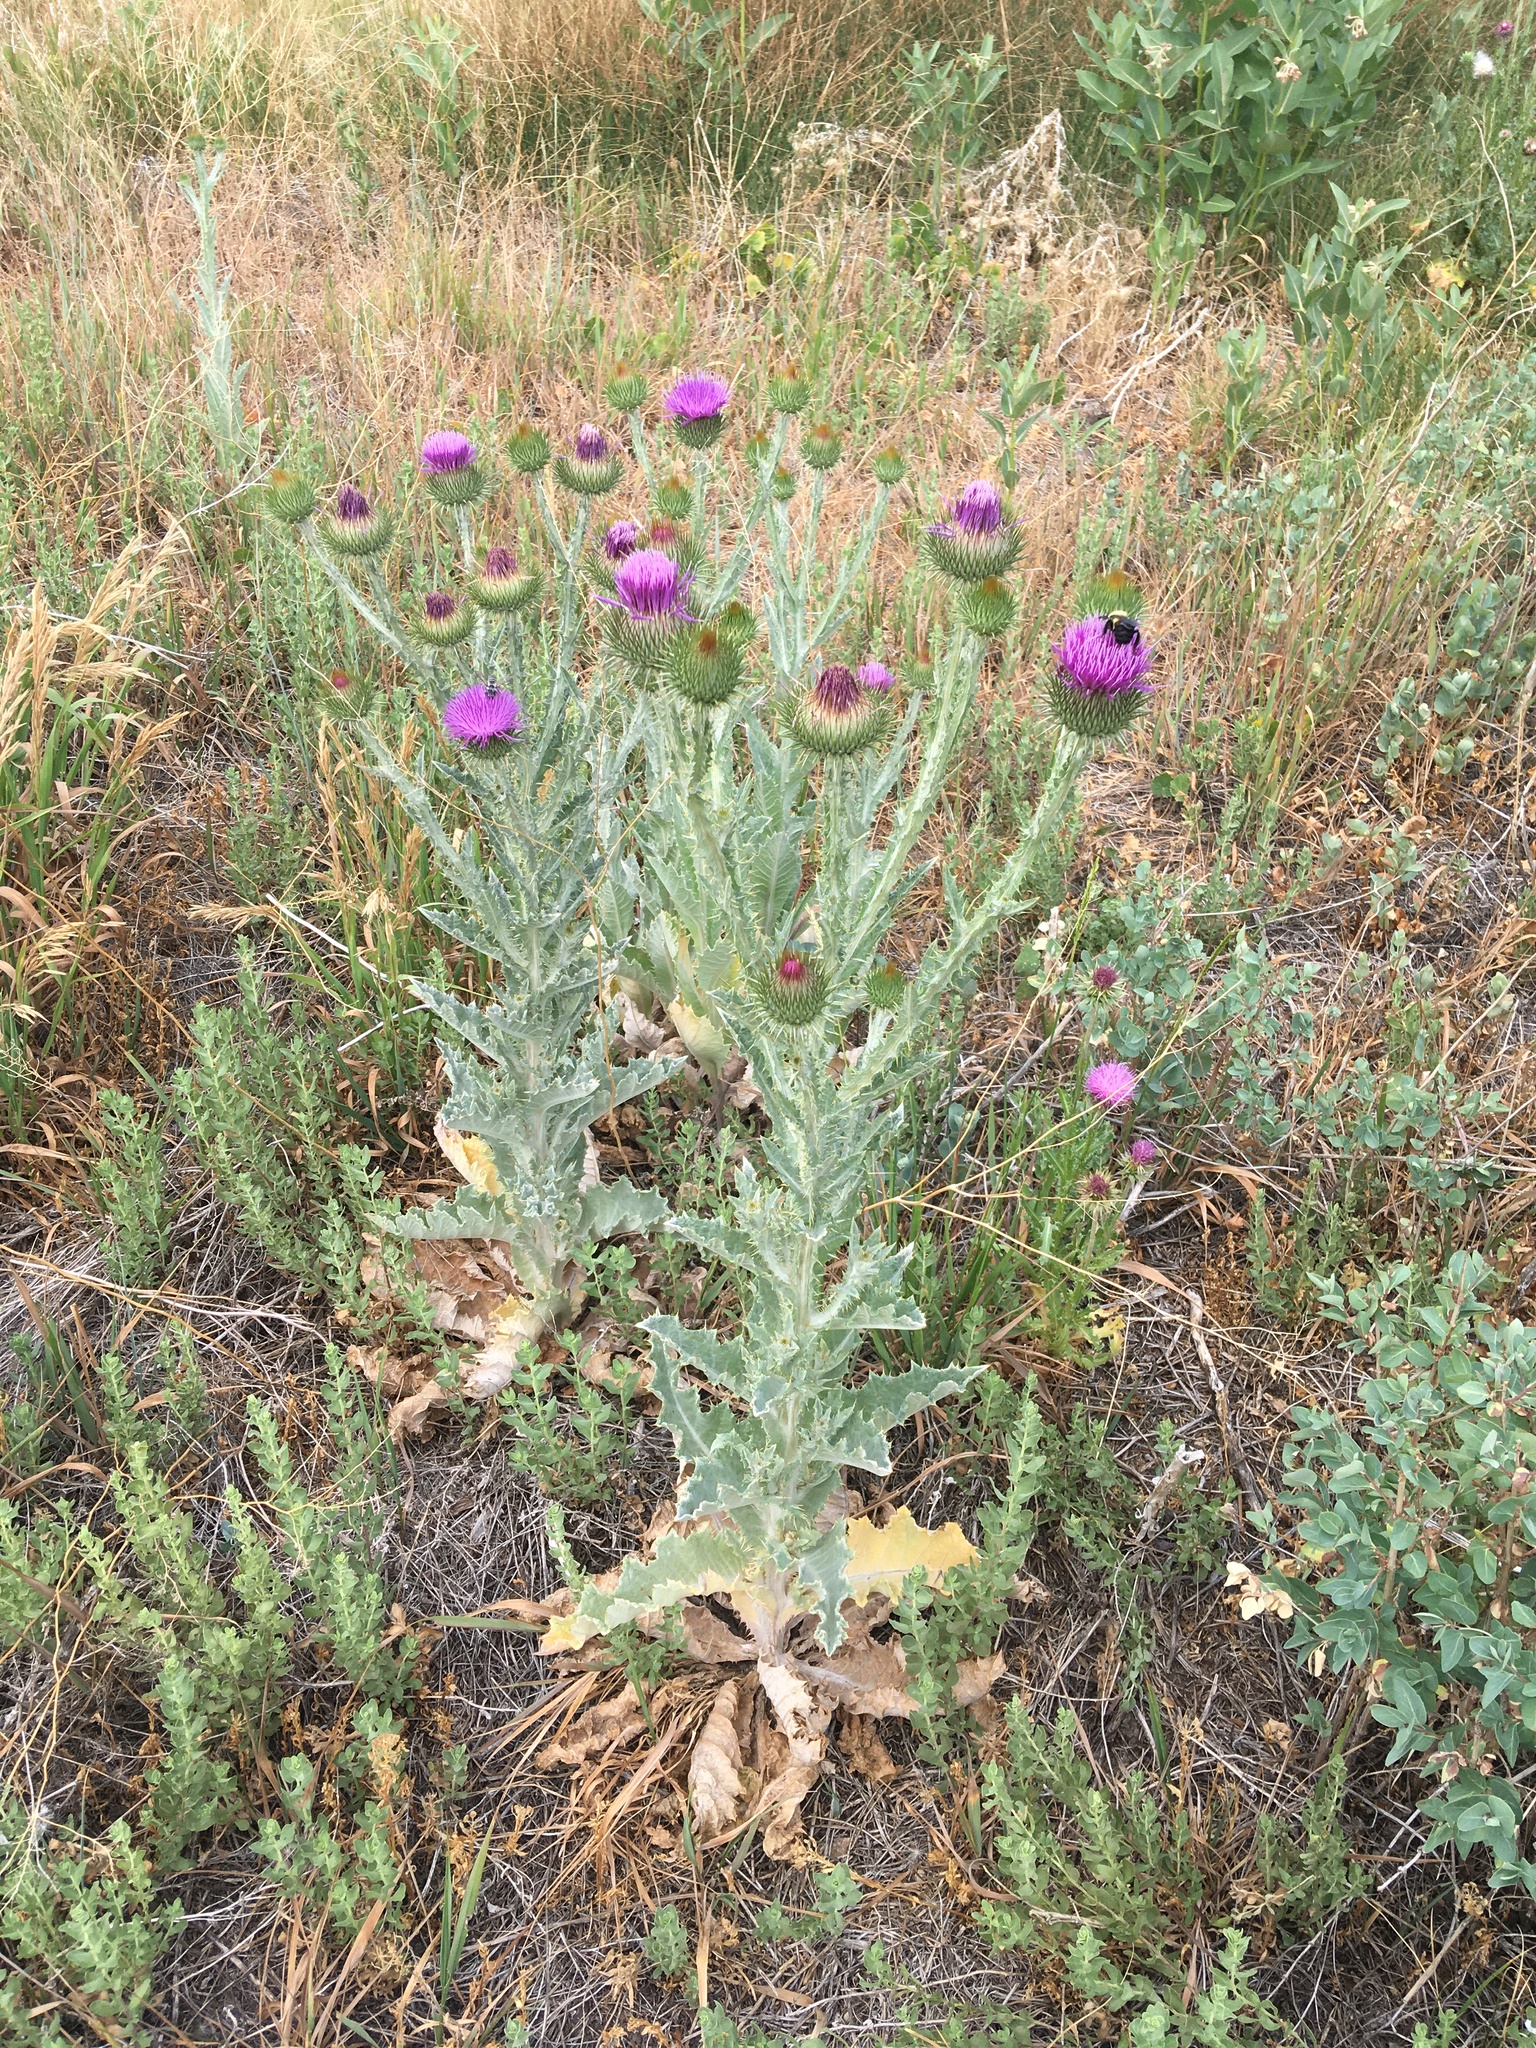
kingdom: Plantae
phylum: Tracheophyta
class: Magnoliopsida
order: Asterales
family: Asteraceae
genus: Onopordum
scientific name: Onopordum acanthium
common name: Scotch thistle
